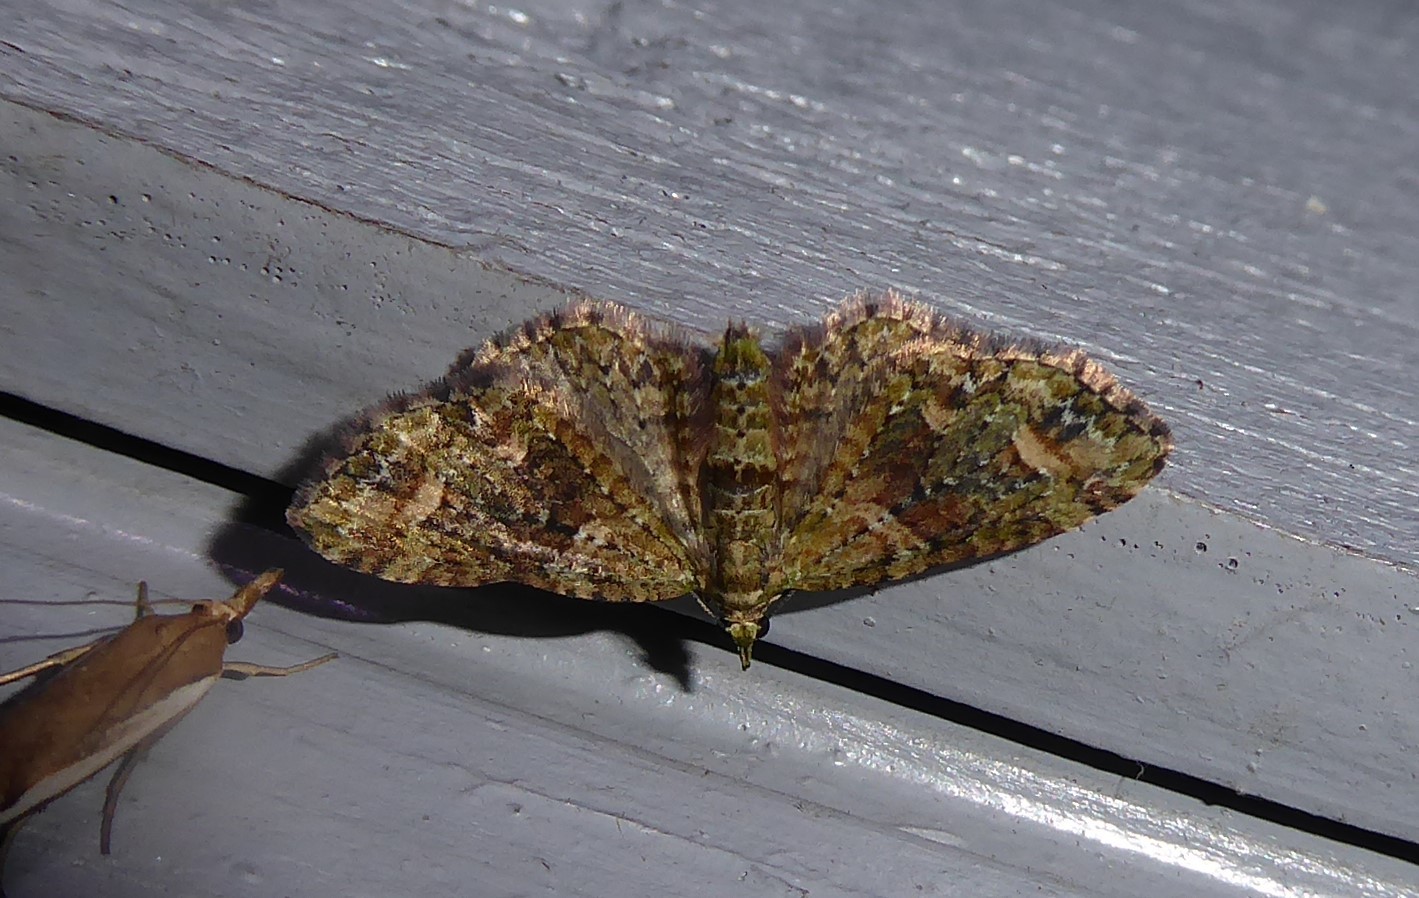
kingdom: Animalia
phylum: Arthropoda
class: Insecta
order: Lepidoptera
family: Geometridae
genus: Idaea
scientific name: Idaea mutanda
